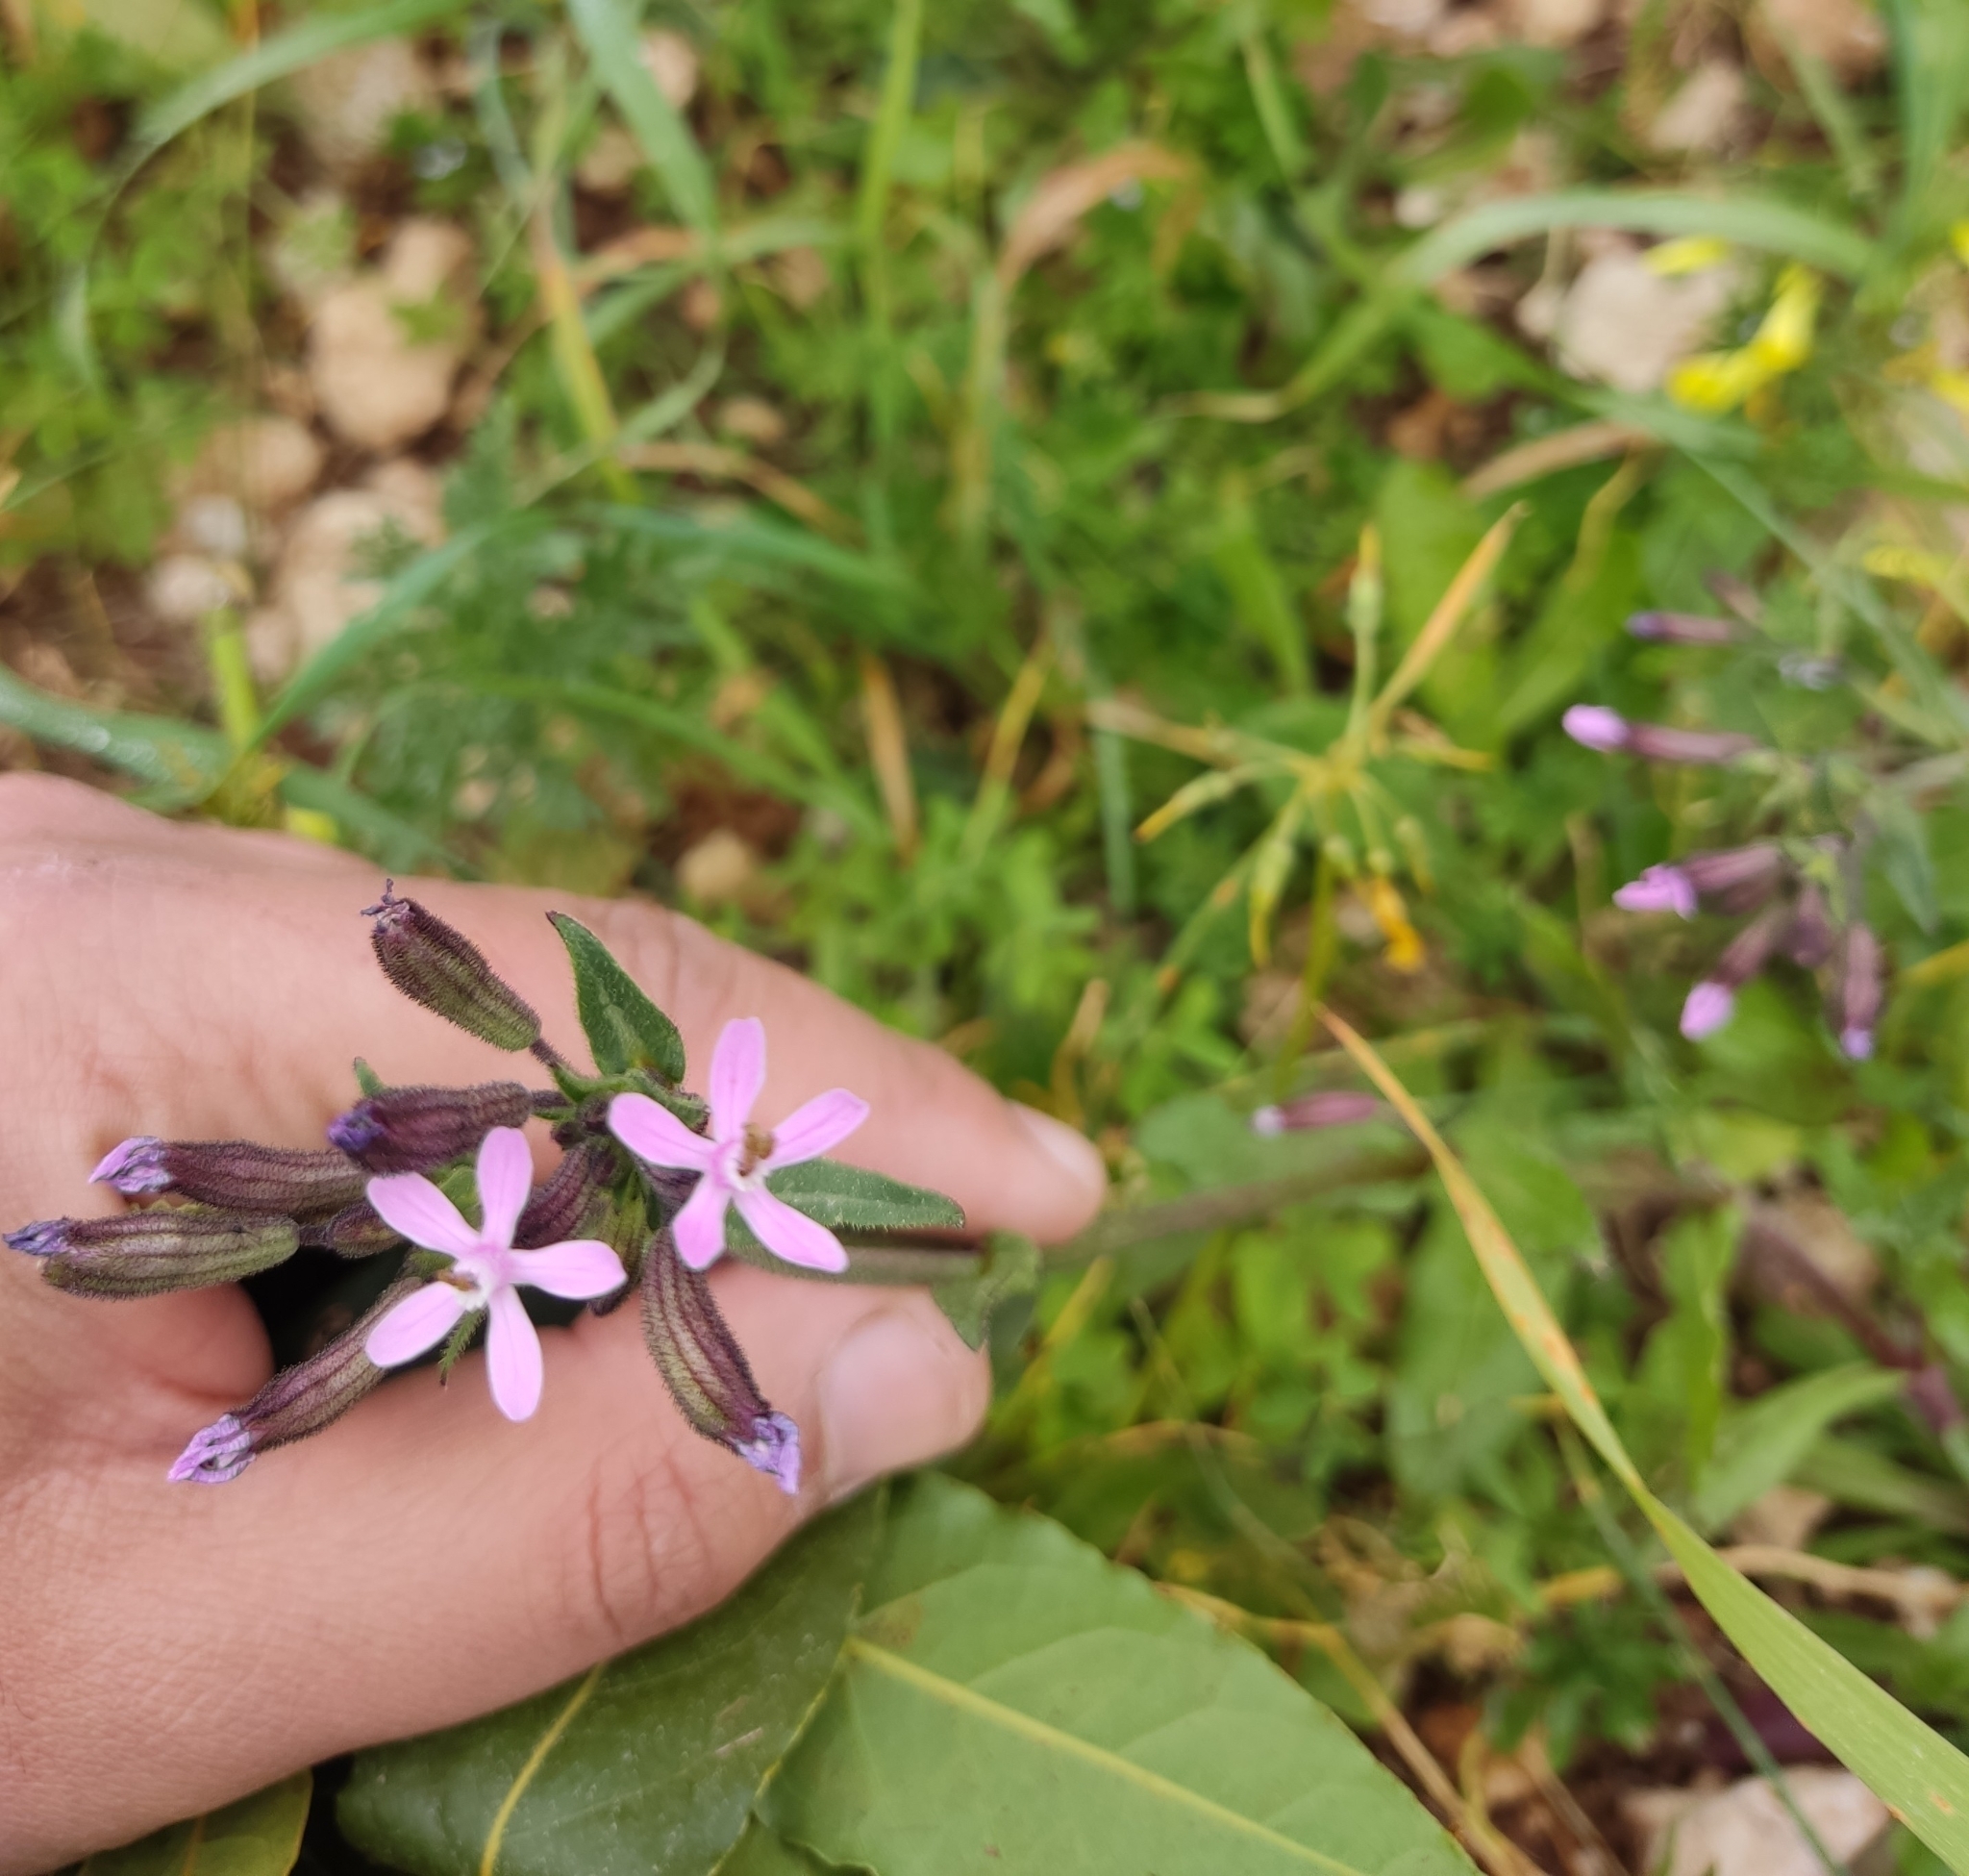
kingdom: Plantae
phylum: Tracheophyta
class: Magnoliopsida
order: Caryophyllales
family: Caryophyllaceae
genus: Silene
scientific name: Silene fuscata
